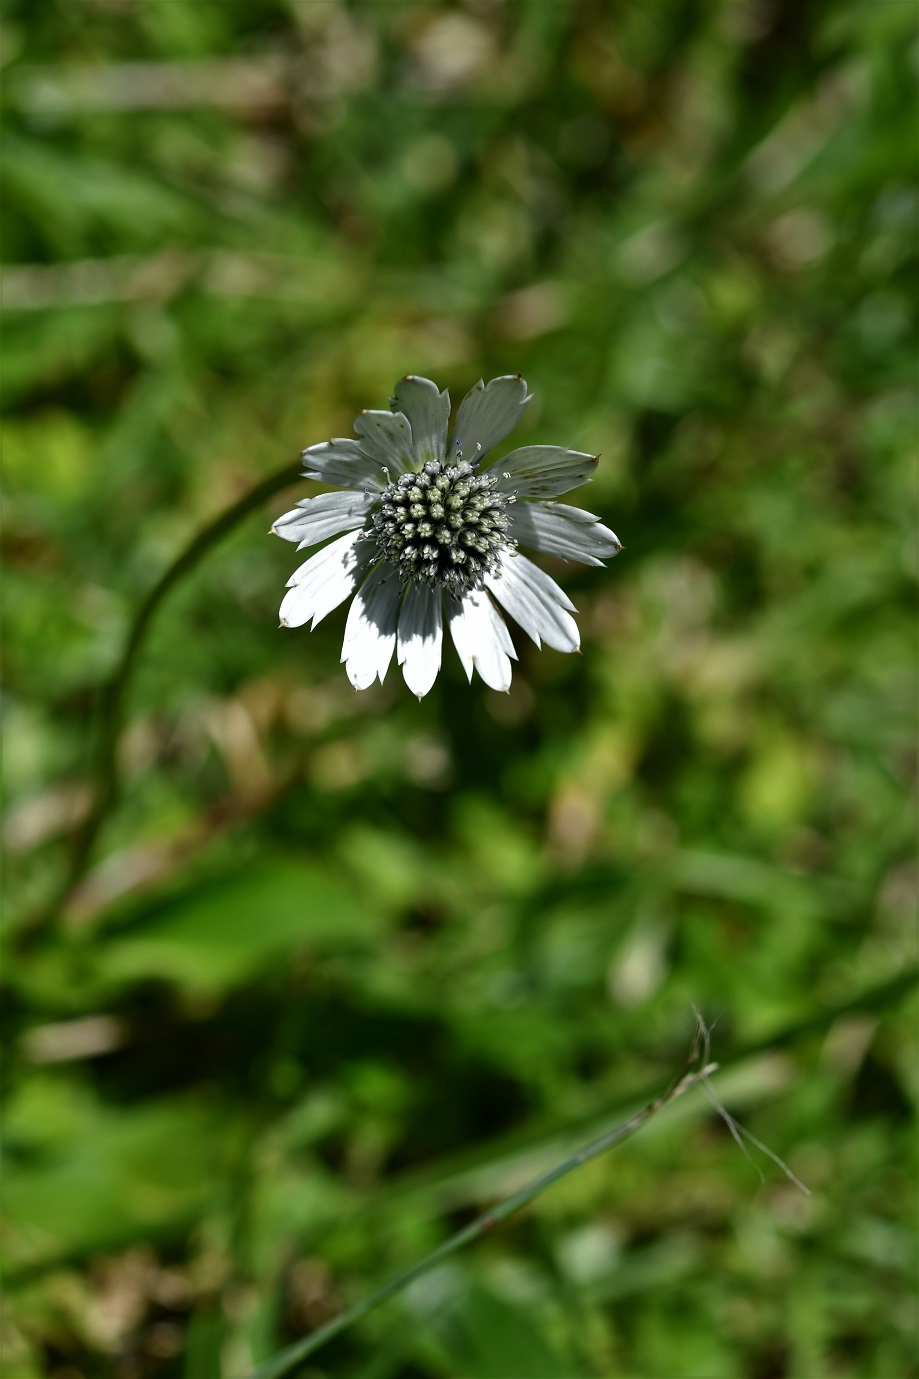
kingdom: Plantae
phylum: Tracheophyta
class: Magnoliopsida
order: Apiales
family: Apiaceae
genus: Eryngium
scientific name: Eryngium scaposum
